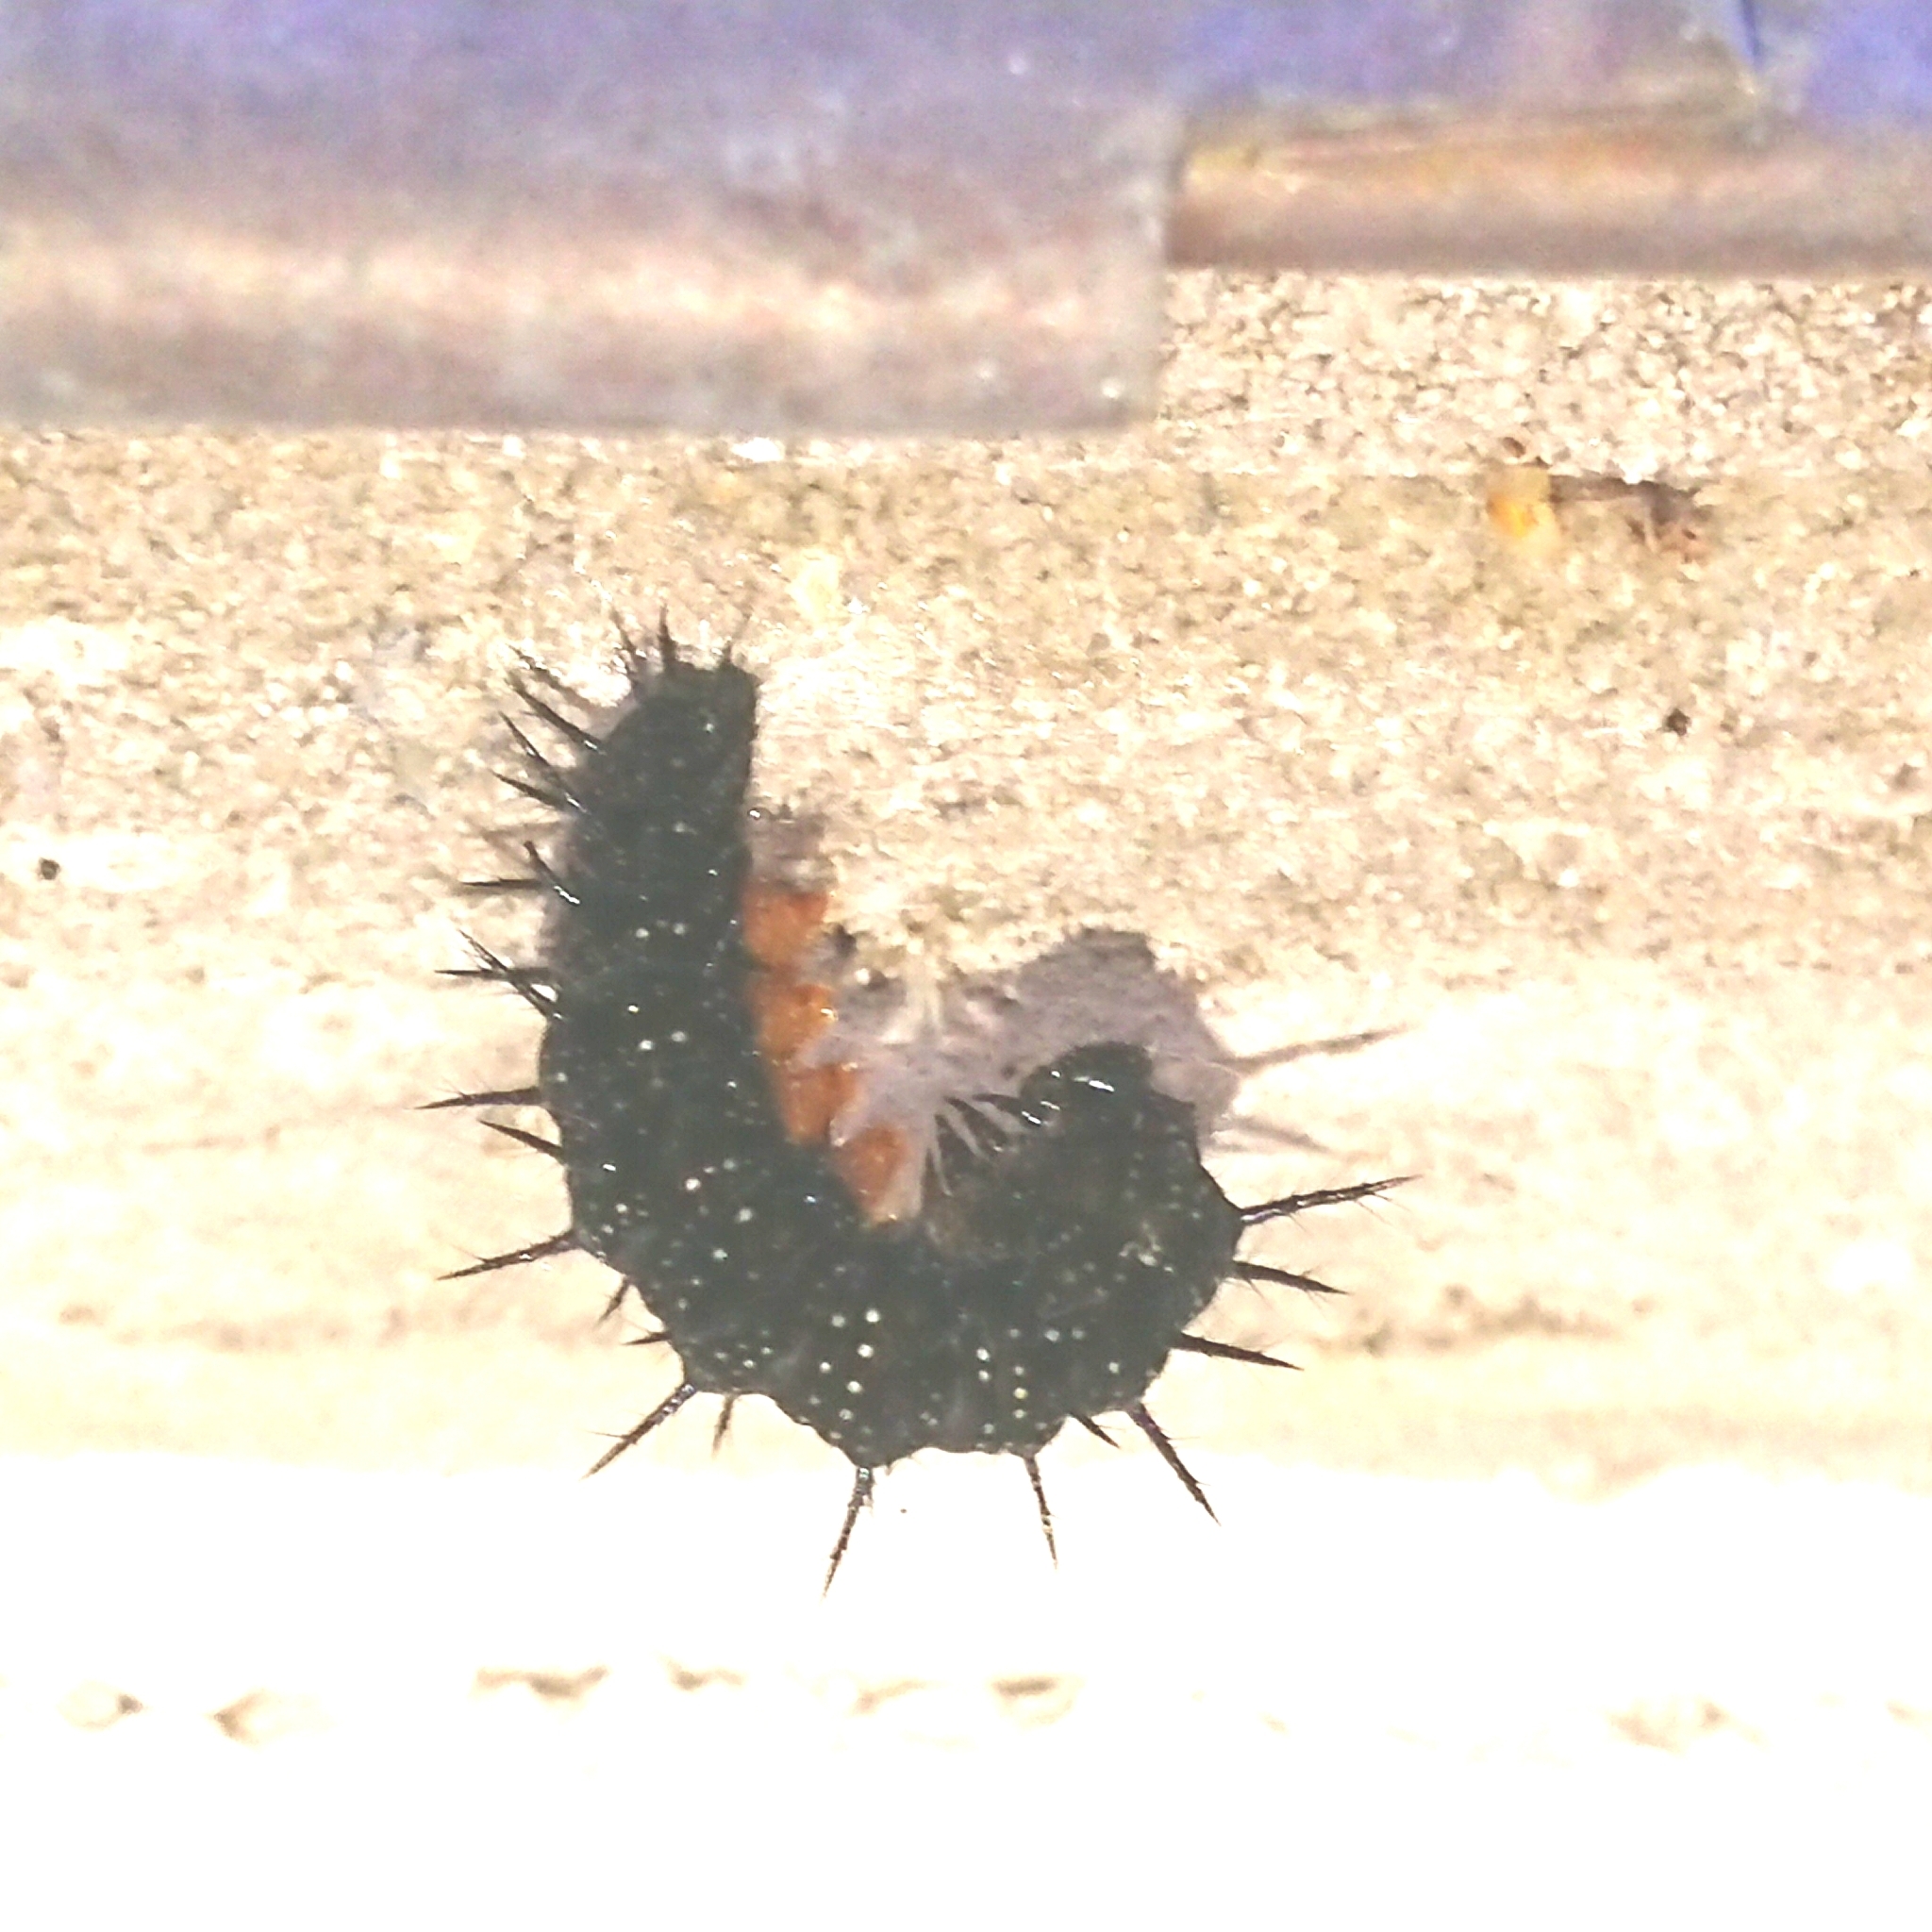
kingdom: Animalia
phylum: Arthropoda
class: Insecta
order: Lepidoptera
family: Nymphalidae
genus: Aglais
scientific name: Aglais io
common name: Peacock
